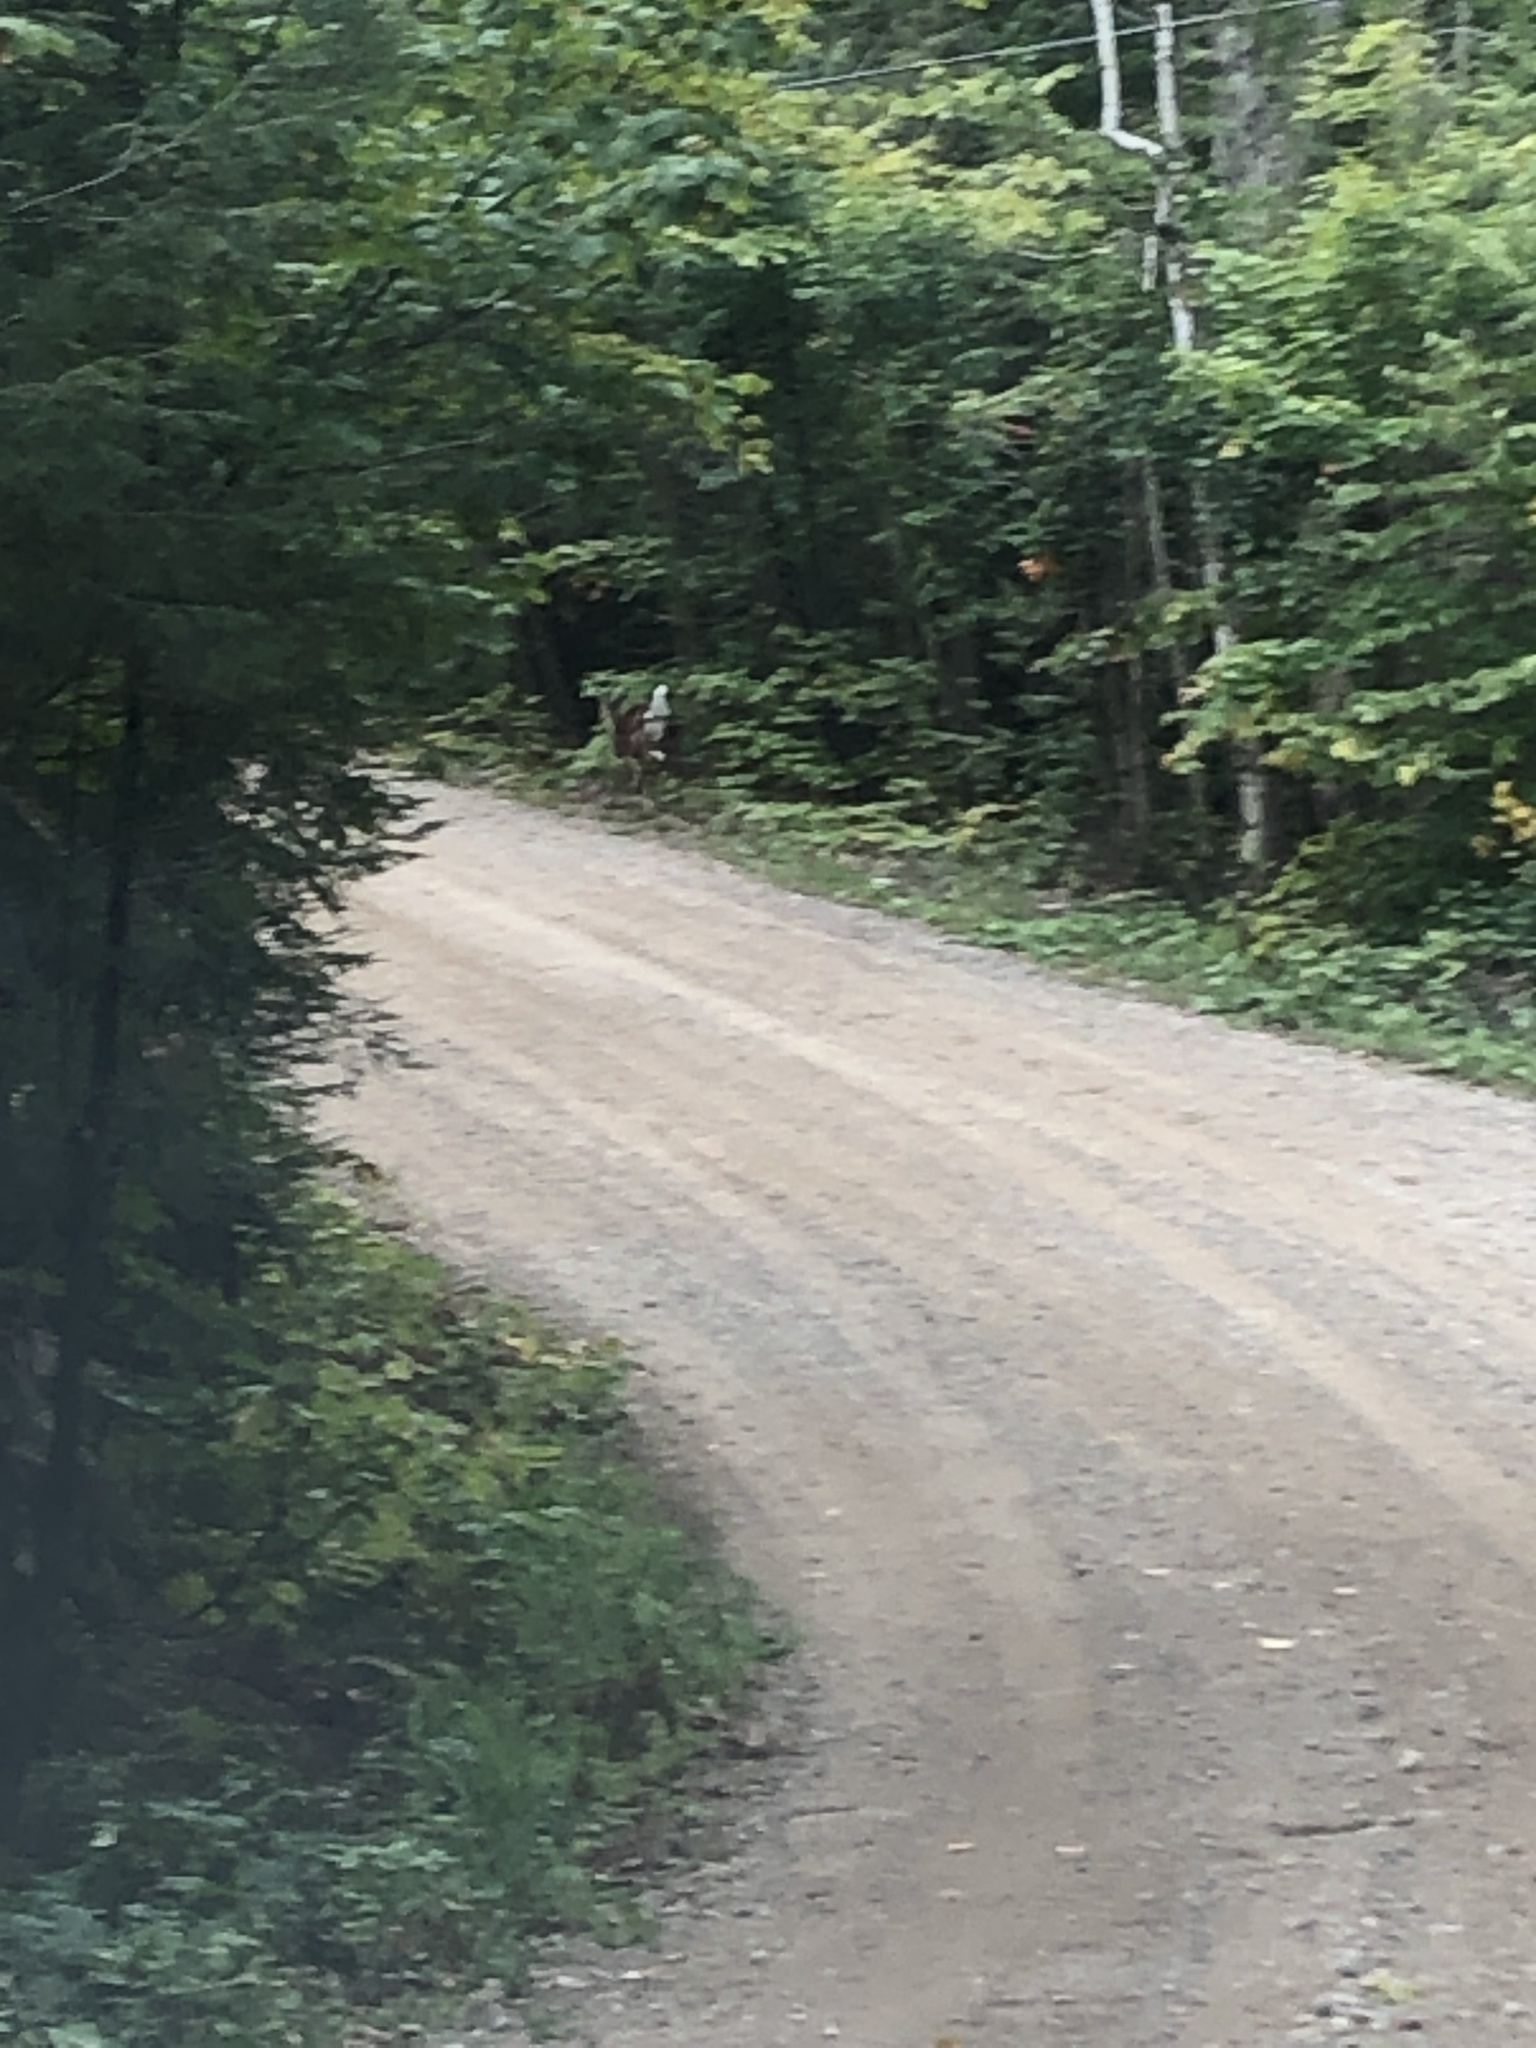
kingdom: Animalia
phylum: Chordata
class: Mammalia
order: Artiodactyla
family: Cervidae
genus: Odocoileus
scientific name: Odocoileus virginianus
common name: White-tailed deer
